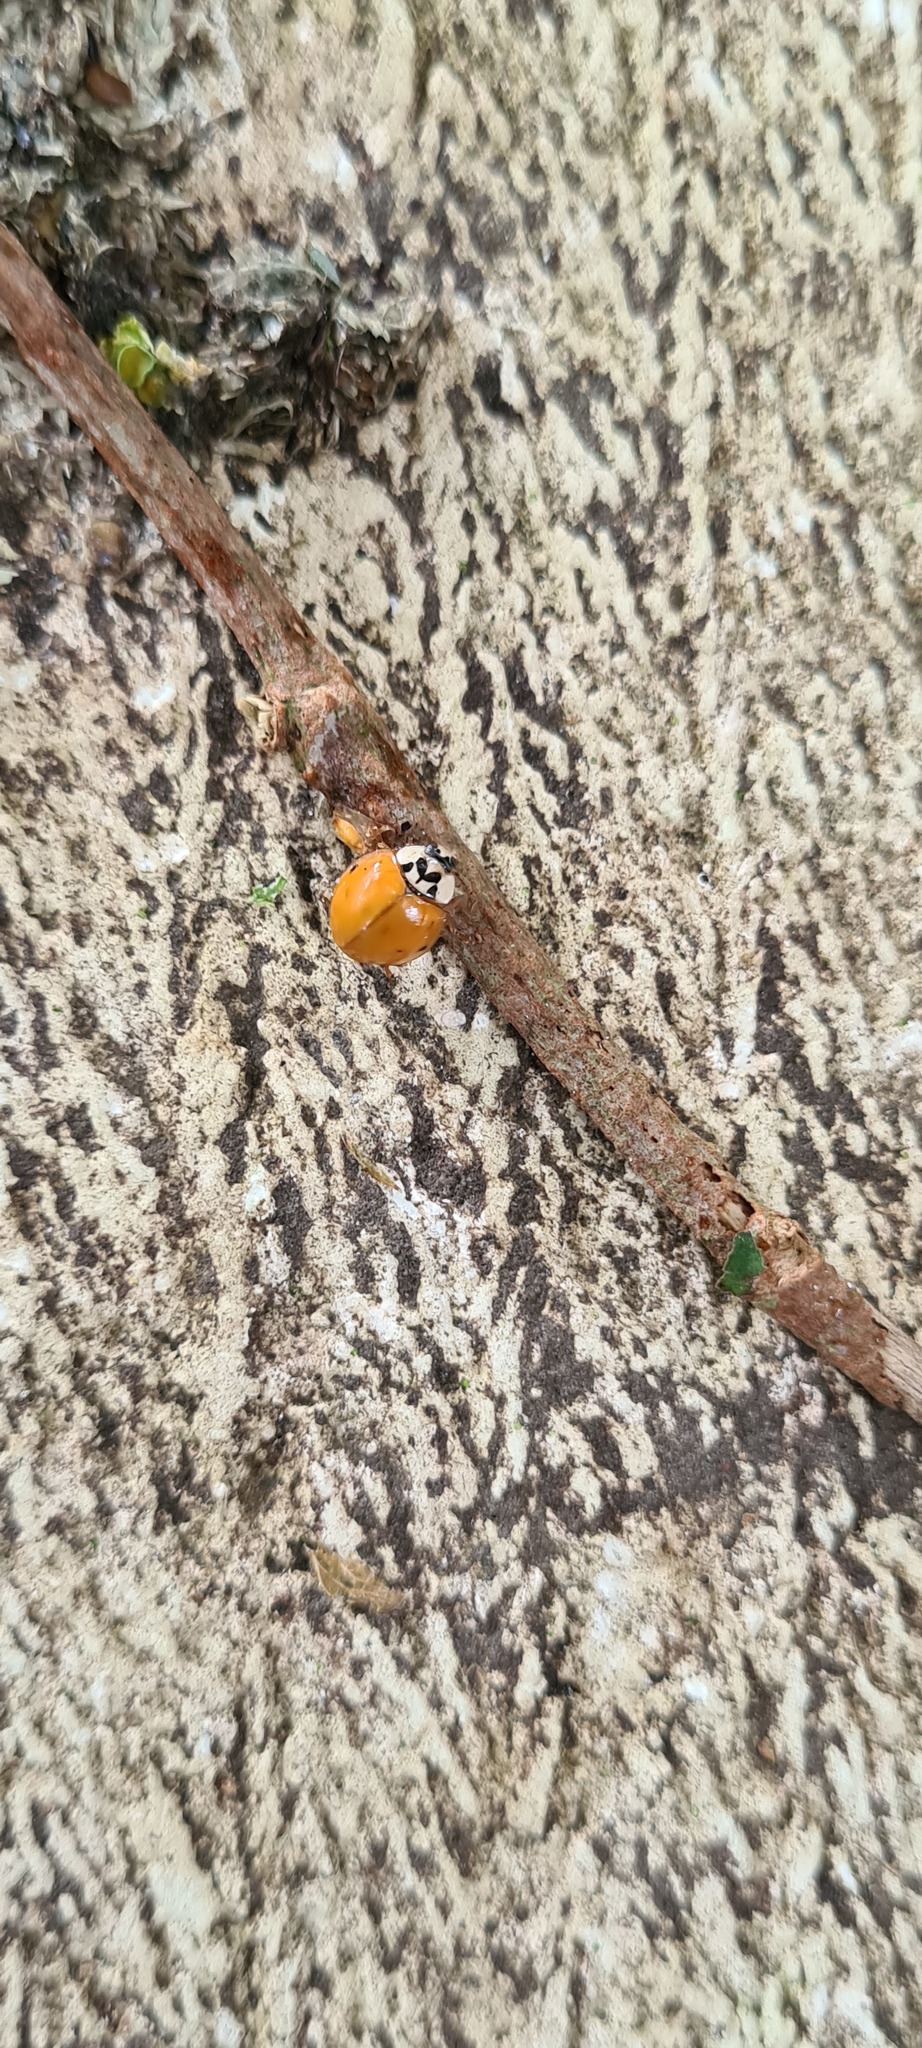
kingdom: Animalia
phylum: Arthropoda
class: Insecta
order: Coleoptera
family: Coccinellidae
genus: Harmonia
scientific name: Harmonia axyridis
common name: Harlequin ladybird
